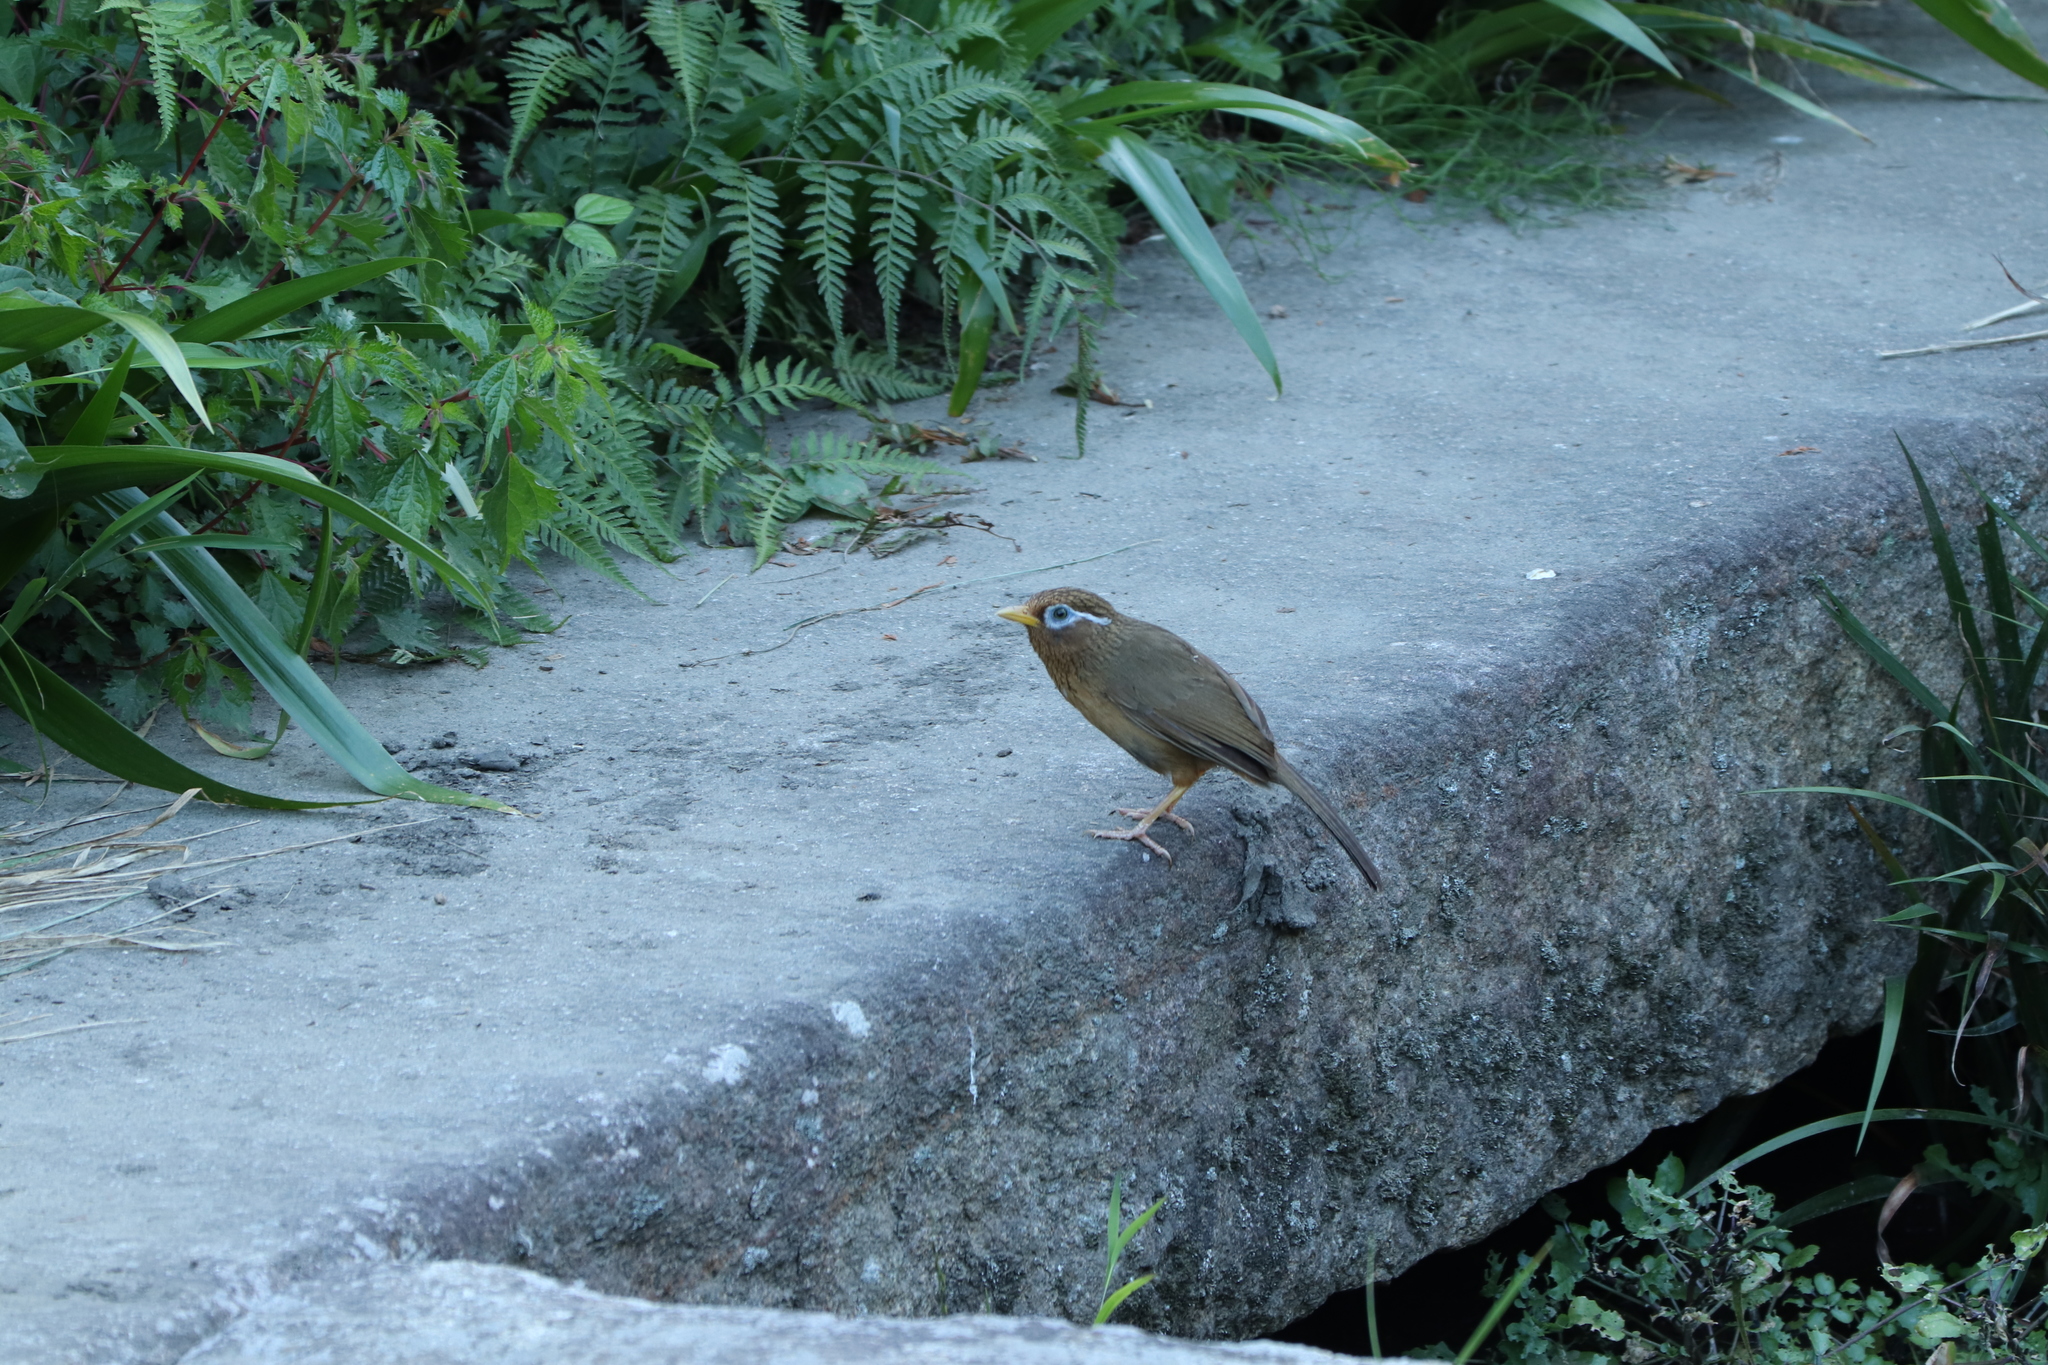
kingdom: Animalia
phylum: Chordata
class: Aves
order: Passeriformes
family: Leiothrichidae
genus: Garrulax
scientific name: Garrulax canorus
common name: Chinese hwamei
